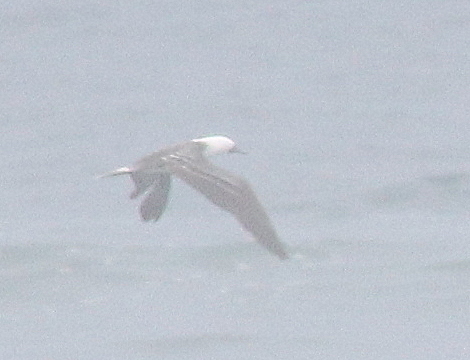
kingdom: Animalia
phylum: Chordata
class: Aves
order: Suliformes
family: Sulidae
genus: Sula
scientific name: Sula variegata
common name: Peruvian booby
